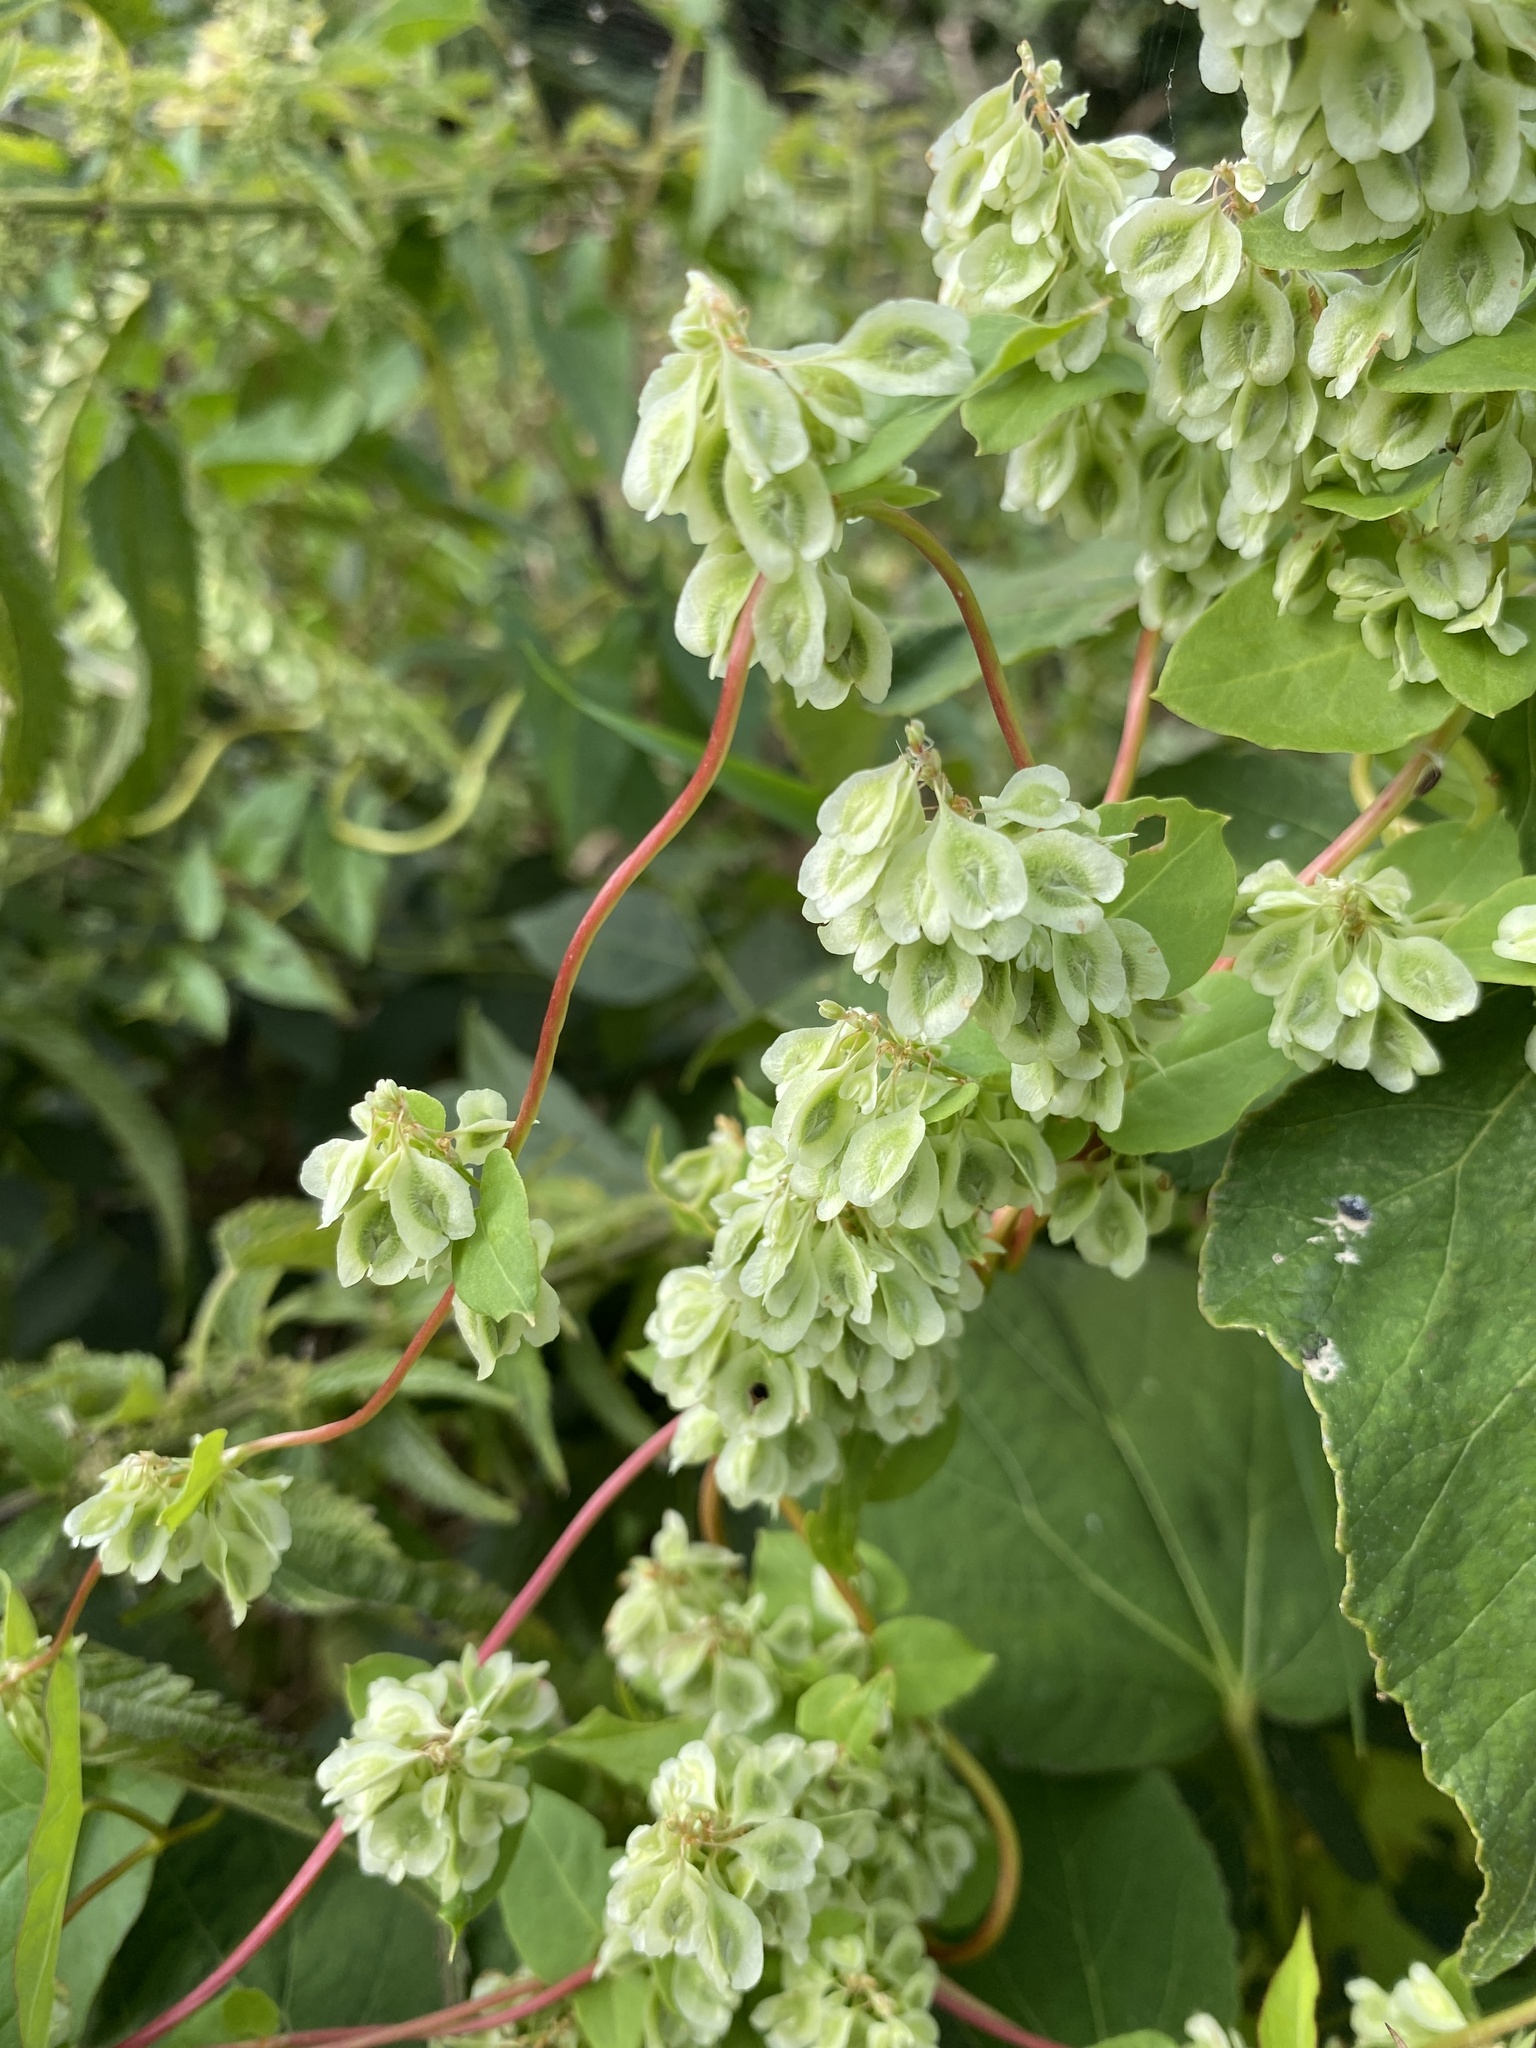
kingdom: Plantae
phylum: Tracheophyta
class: Magnoliopsida
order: Caryophyllales
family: Polygonaceae
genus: Fallopia
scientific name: Fallopia scandens
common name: Climbing false buckwheat
